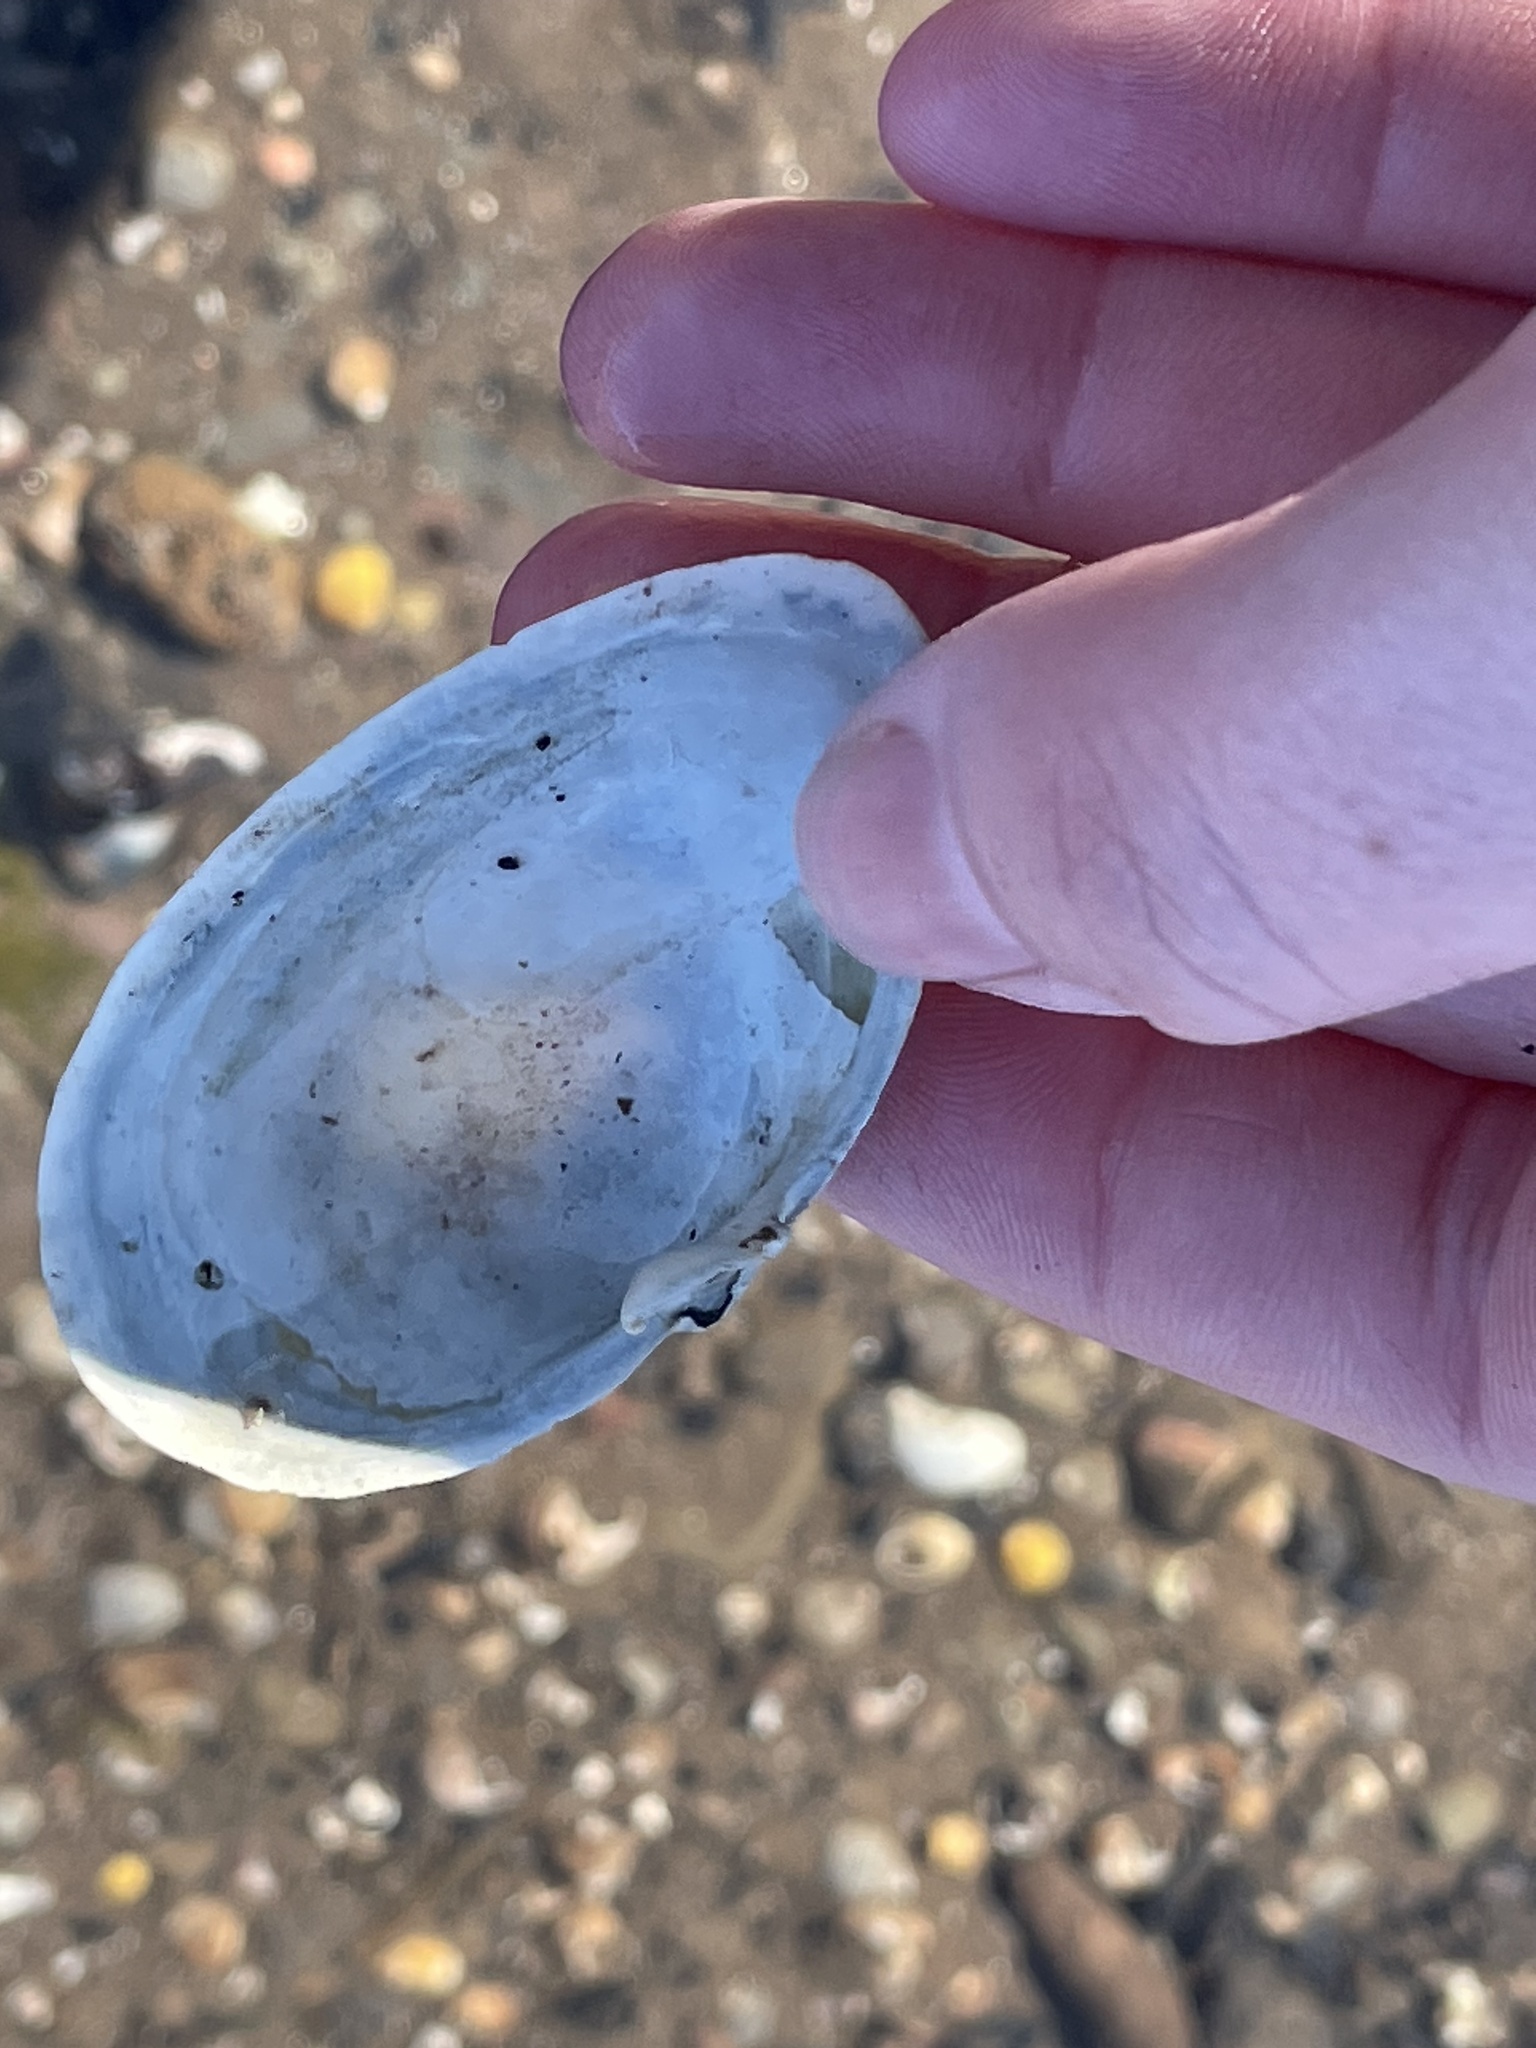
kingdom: Animalia
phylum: Mollusca
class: Bivalvia
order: Myida
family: Myidae
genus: Mya
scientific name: Mya arenaria
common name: Soft-shelled clam
